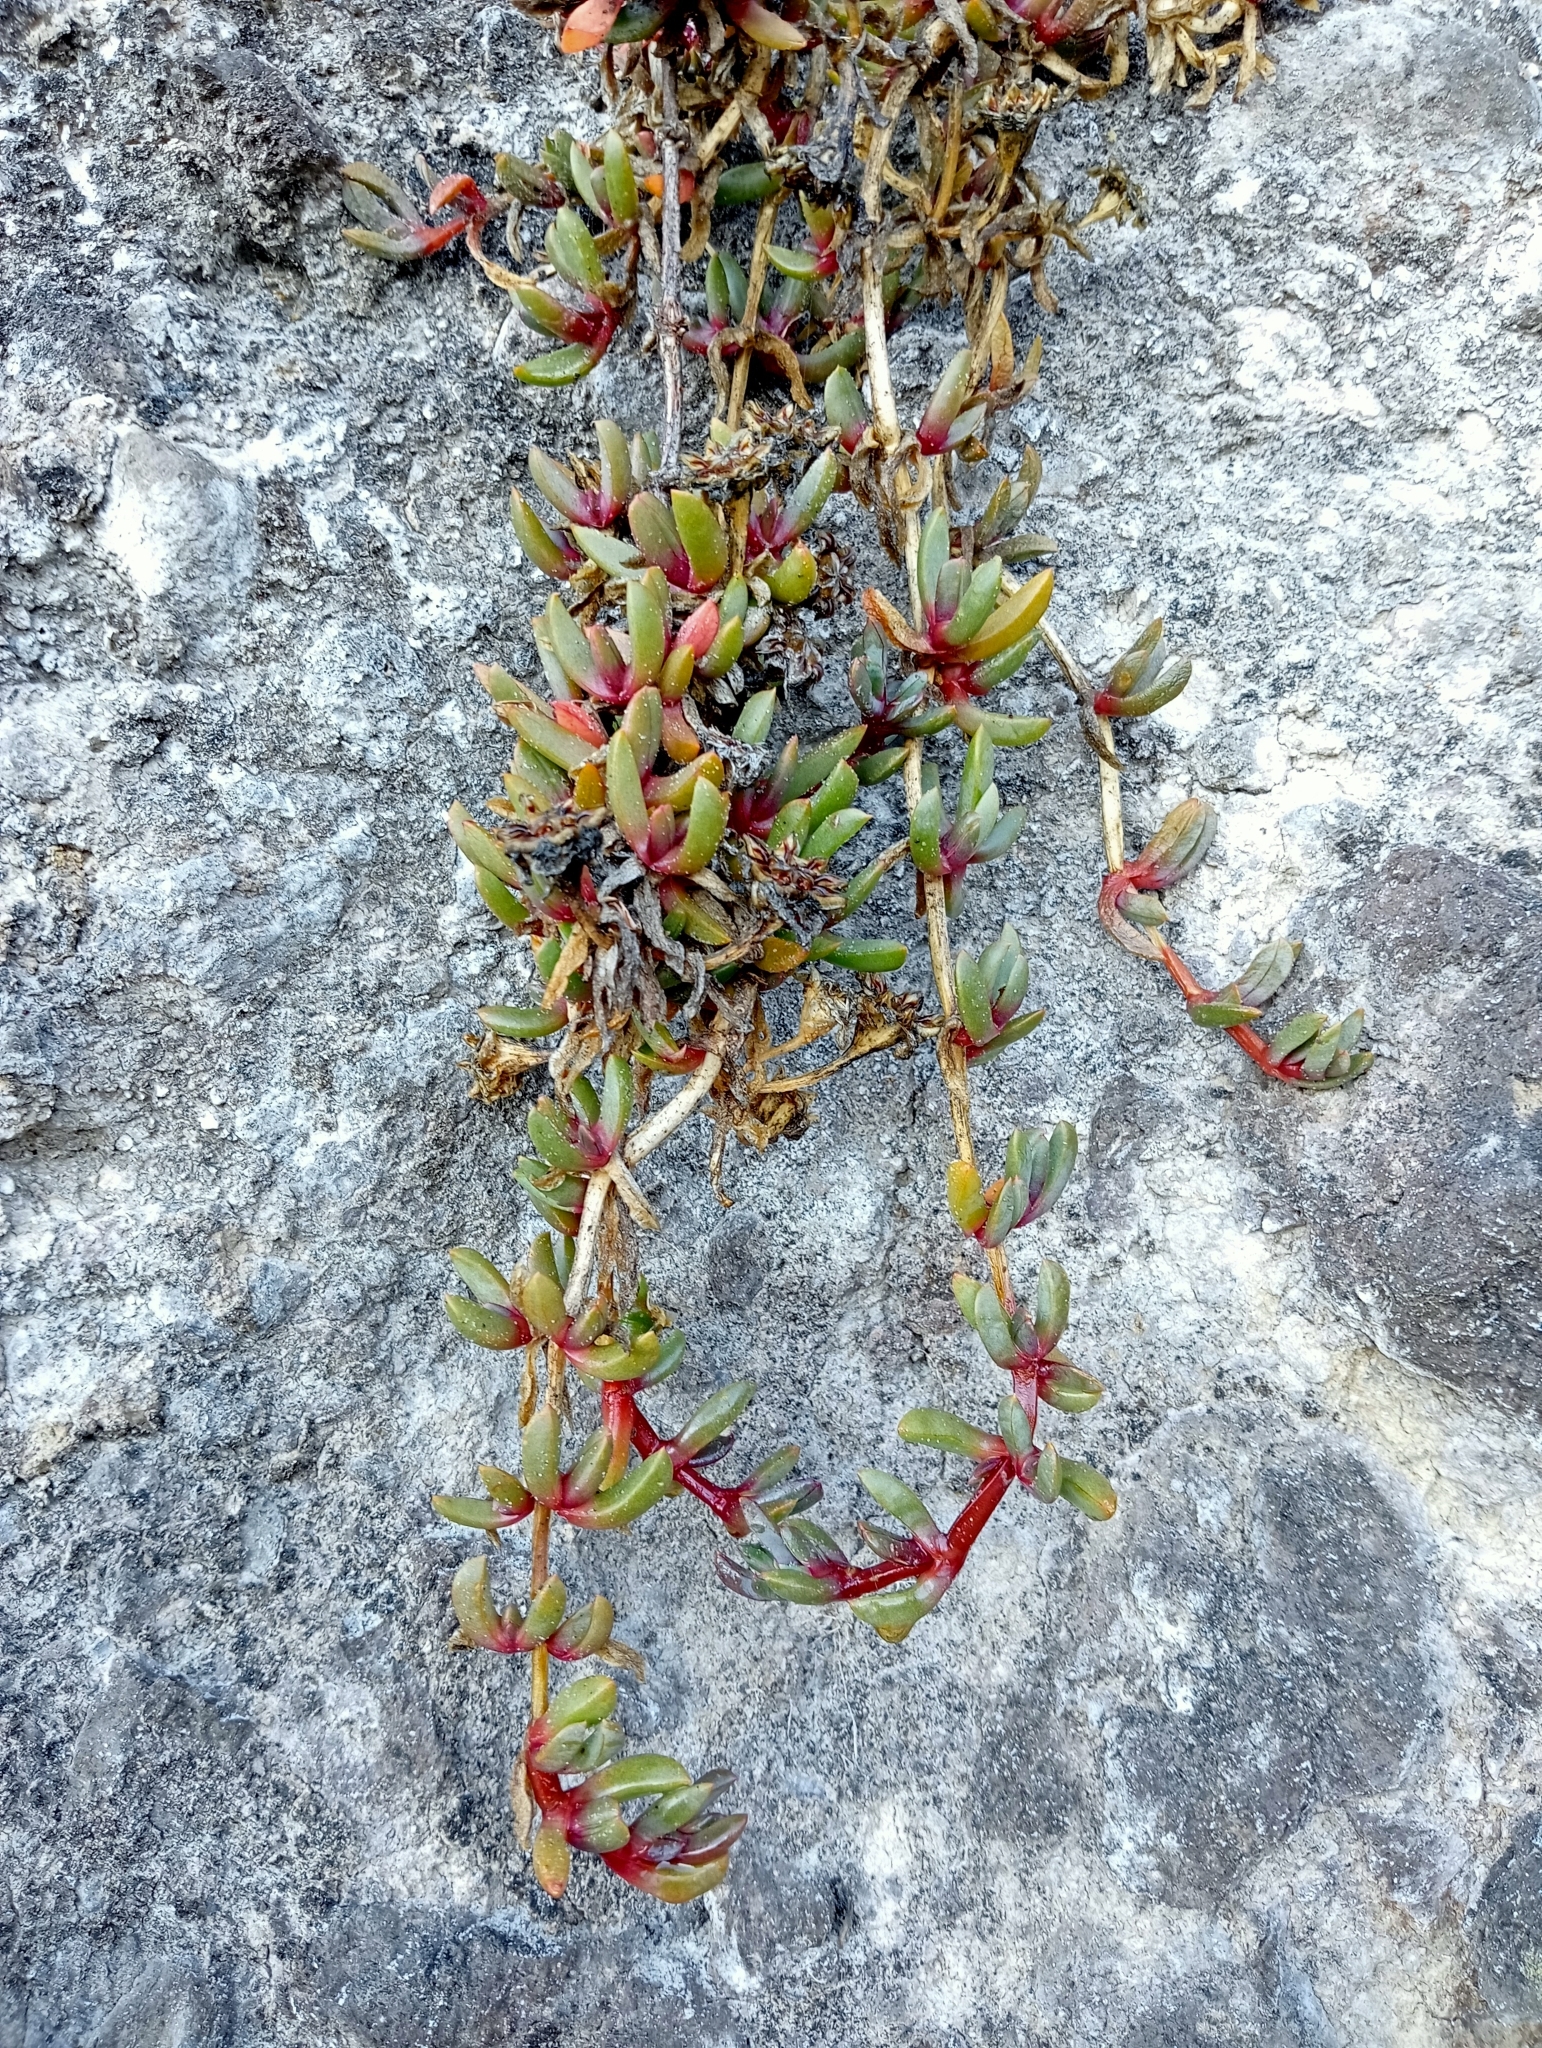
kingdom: Plantae
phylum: Tracheophyta
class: Magnoliopsida
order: Caryophyllales
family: Aizoaceae
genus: Disphyma
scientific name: Disphyma australe
